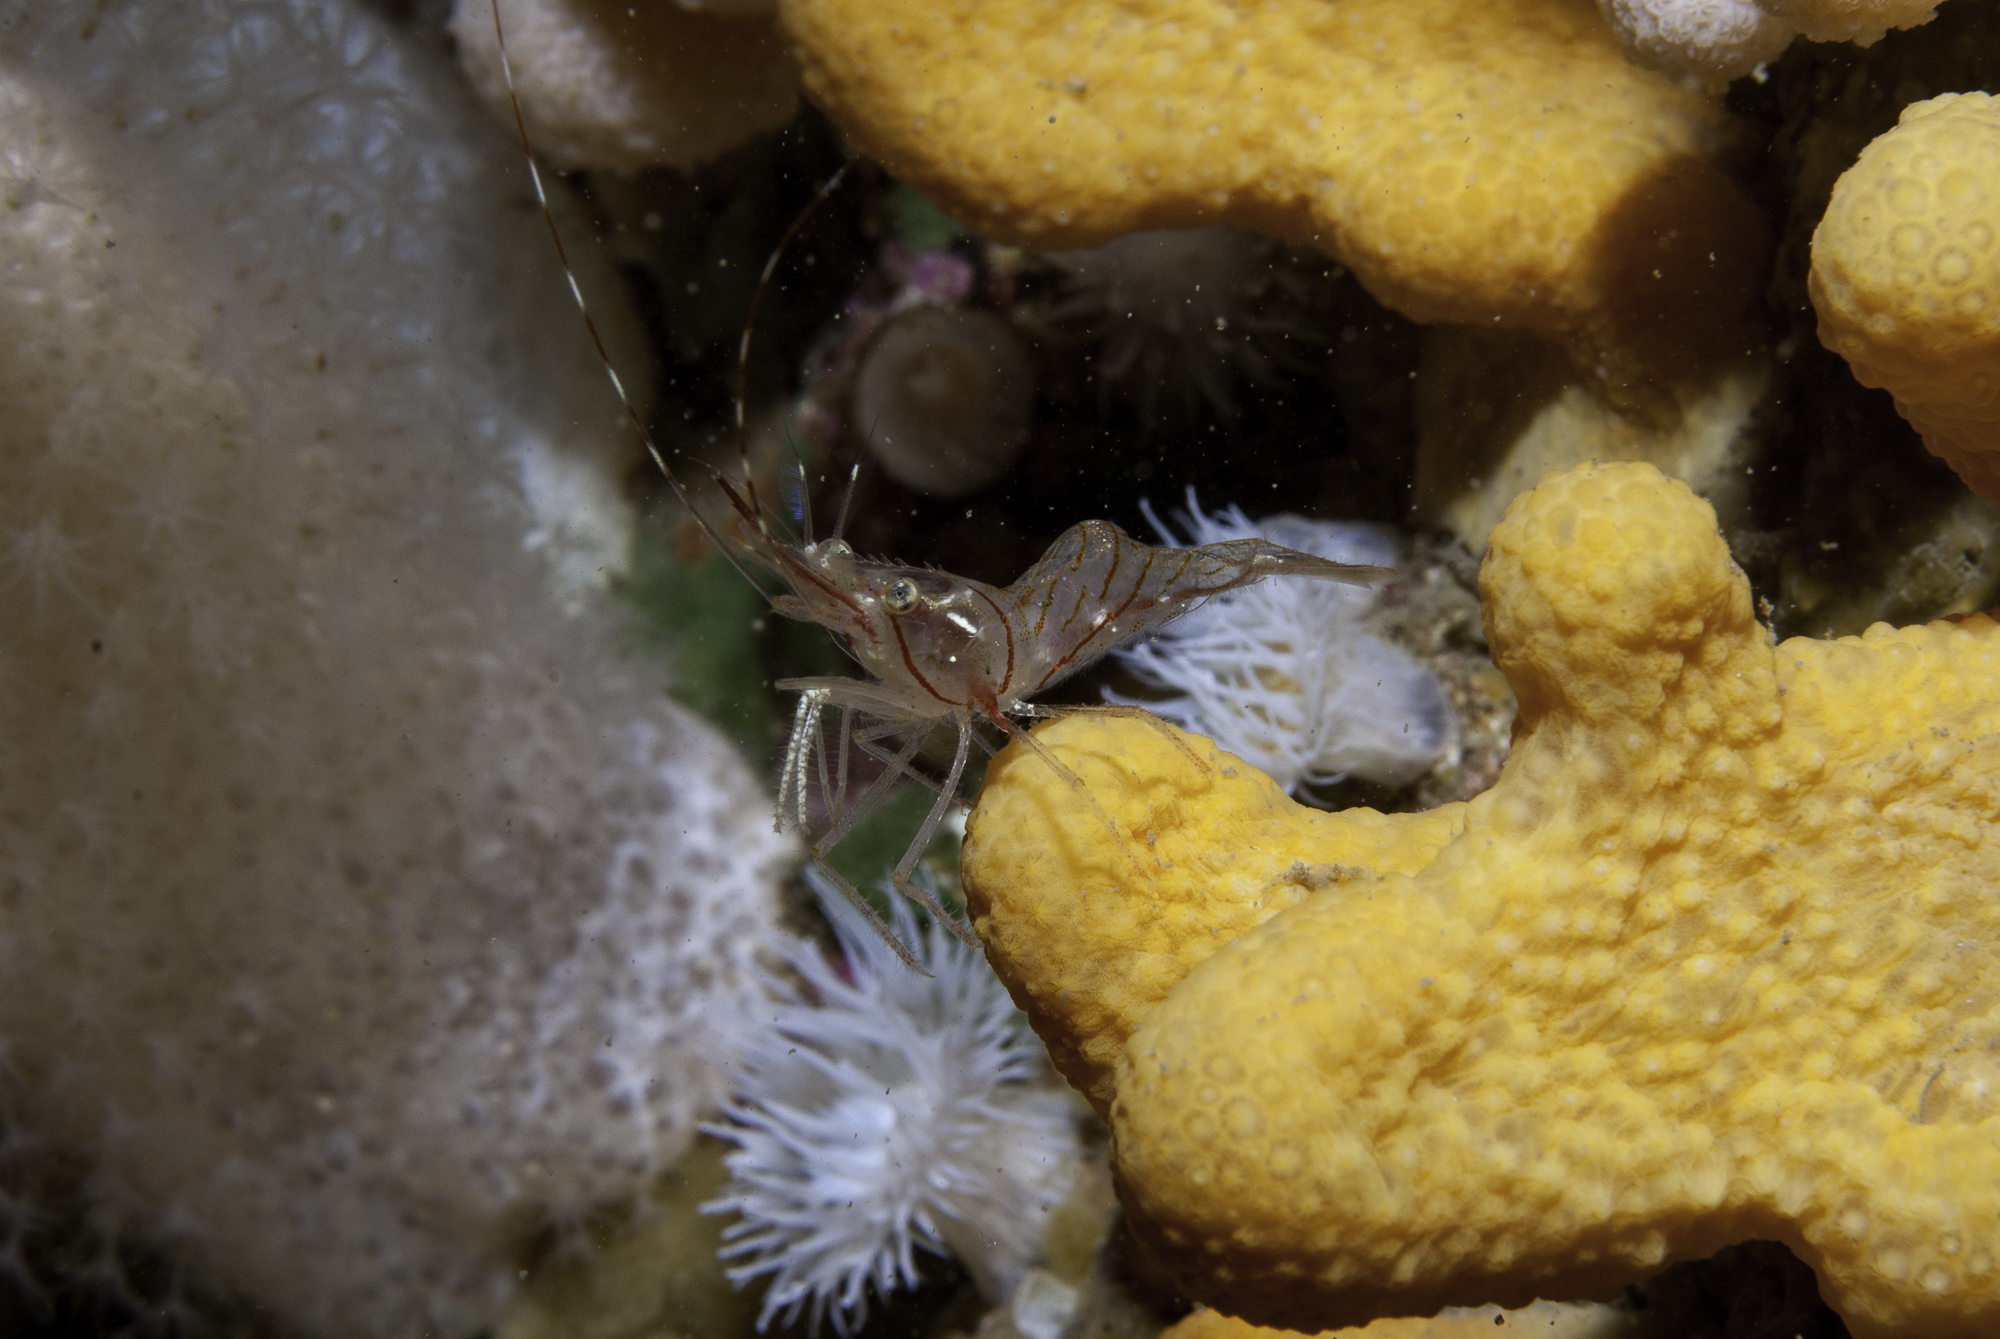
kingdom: Animalia
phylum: Arthropoda
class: Malacostraca
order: Decapoda
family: Pandalidae
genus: Pandalus
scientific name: Pandalus montagui
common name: Pink shrimp
